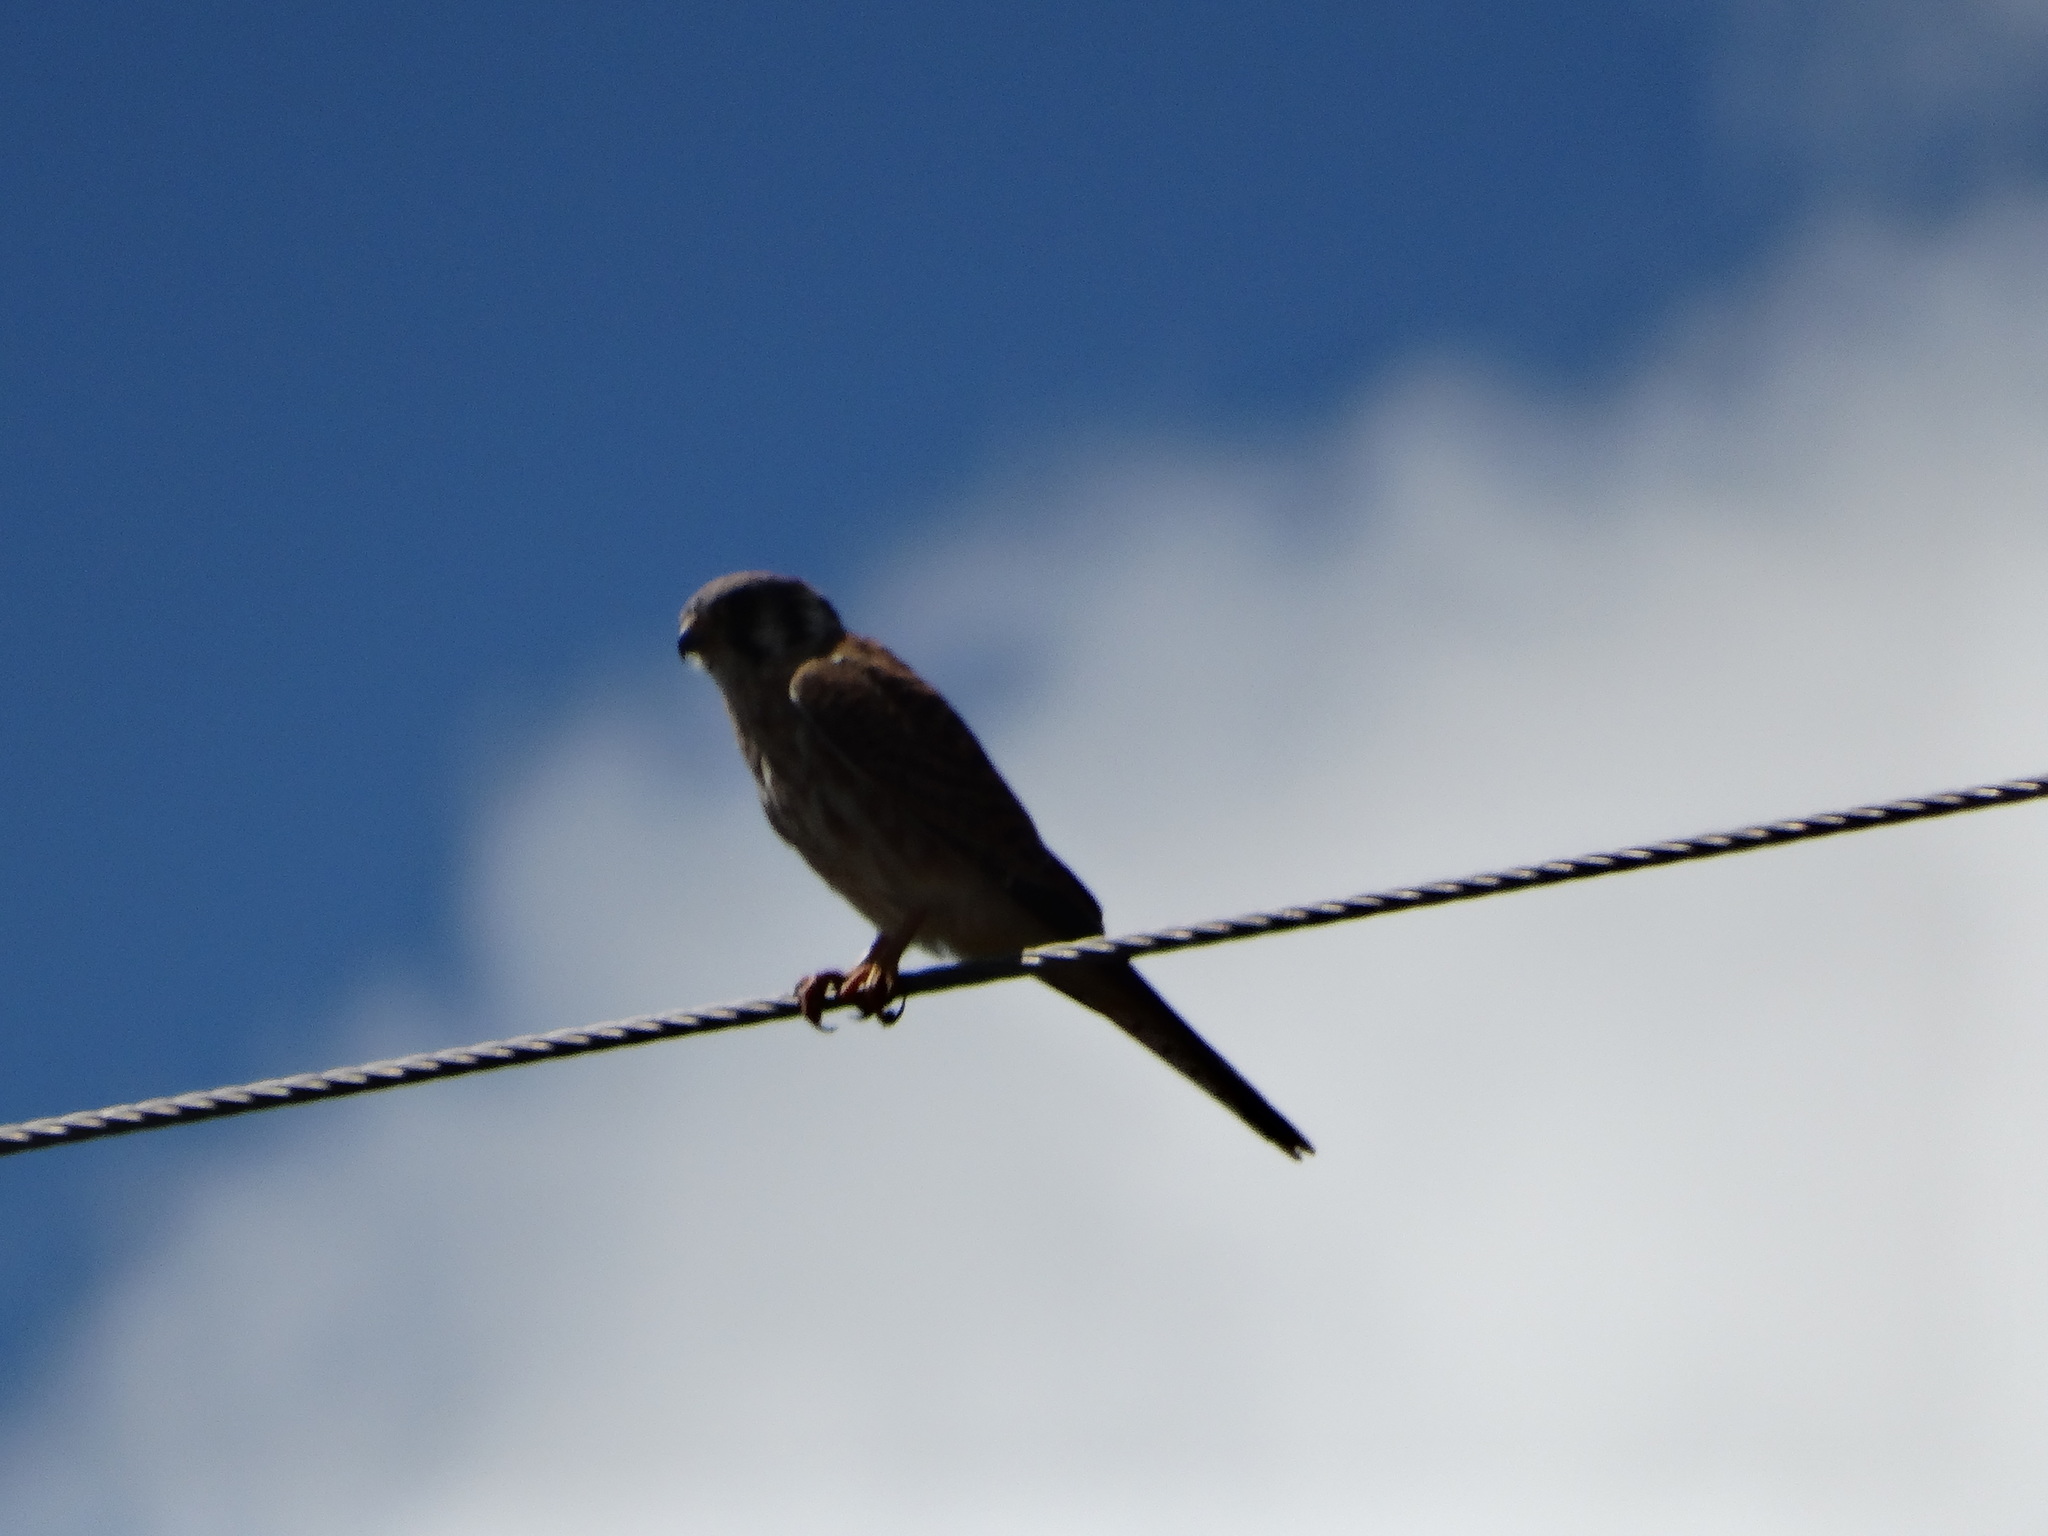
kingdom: Animalia
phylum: Chordata
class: Aves
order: Falconiformes
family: Falconidae
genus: Falco
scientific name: Falco sparverius
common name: American kestrel
